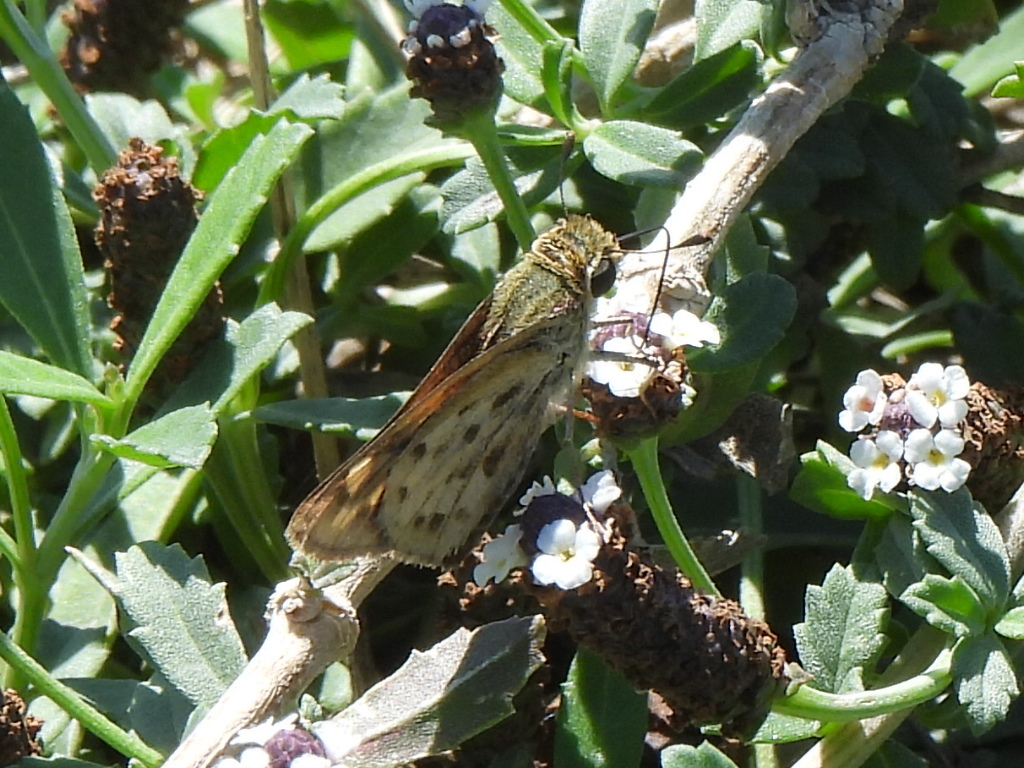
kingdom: Animalia
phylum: Arthropoda
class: Insecta
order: Lepidoptera
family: Hesperiidae
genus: Hylephila
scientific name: Hylephila phyleus
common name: Fiery skipper
